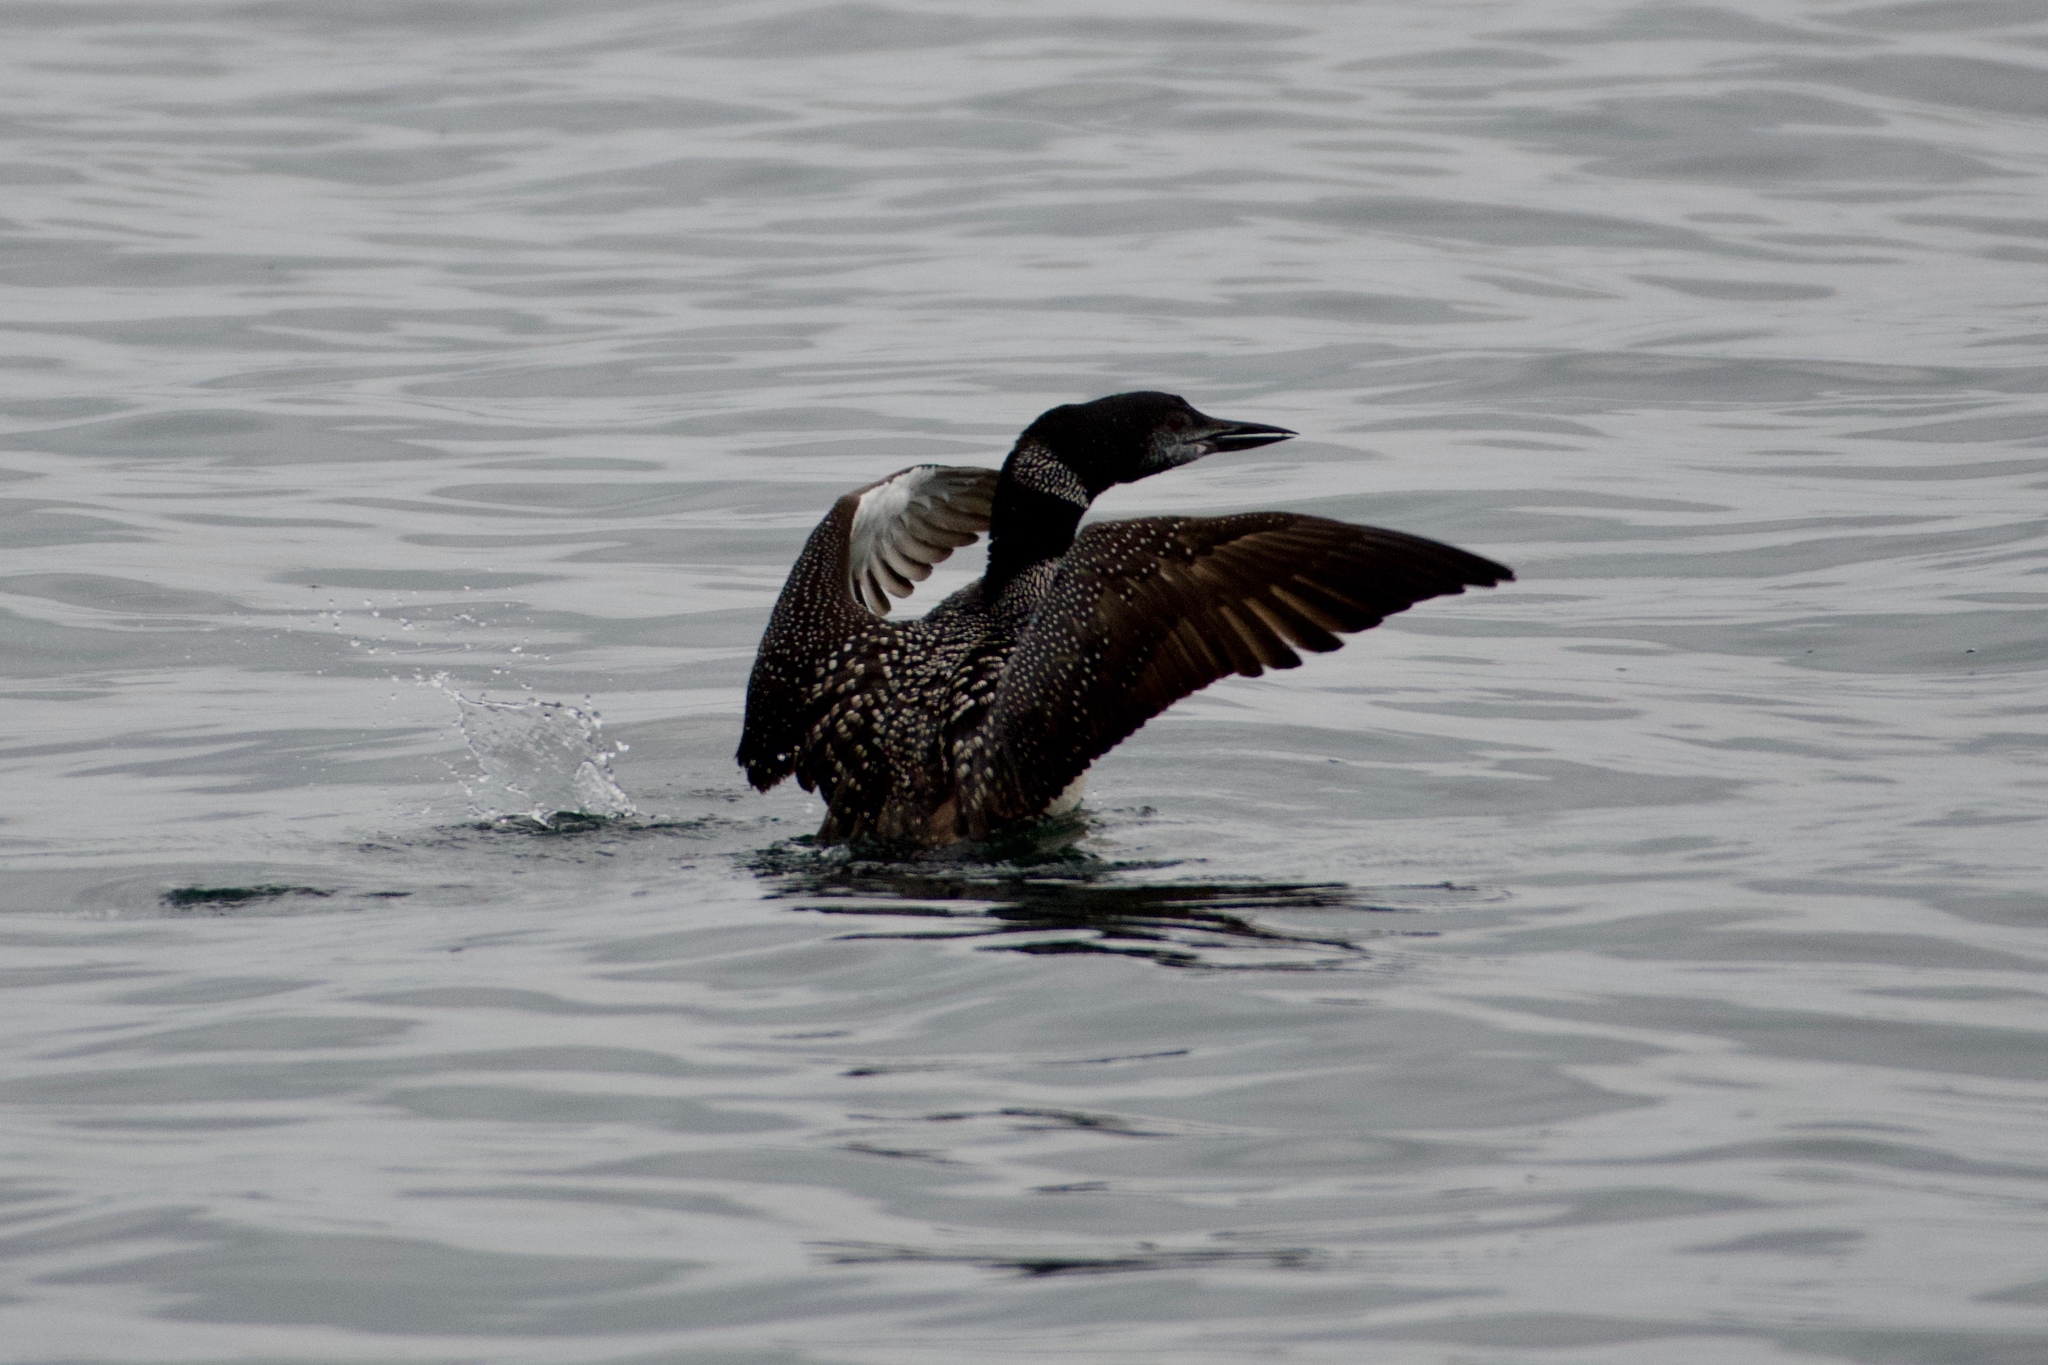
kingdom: Animalia
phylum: Chordata
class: Aves
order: Gaviiformes
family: Gaviidae
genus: Gavia
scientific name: Gavia immer
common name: Common loon
